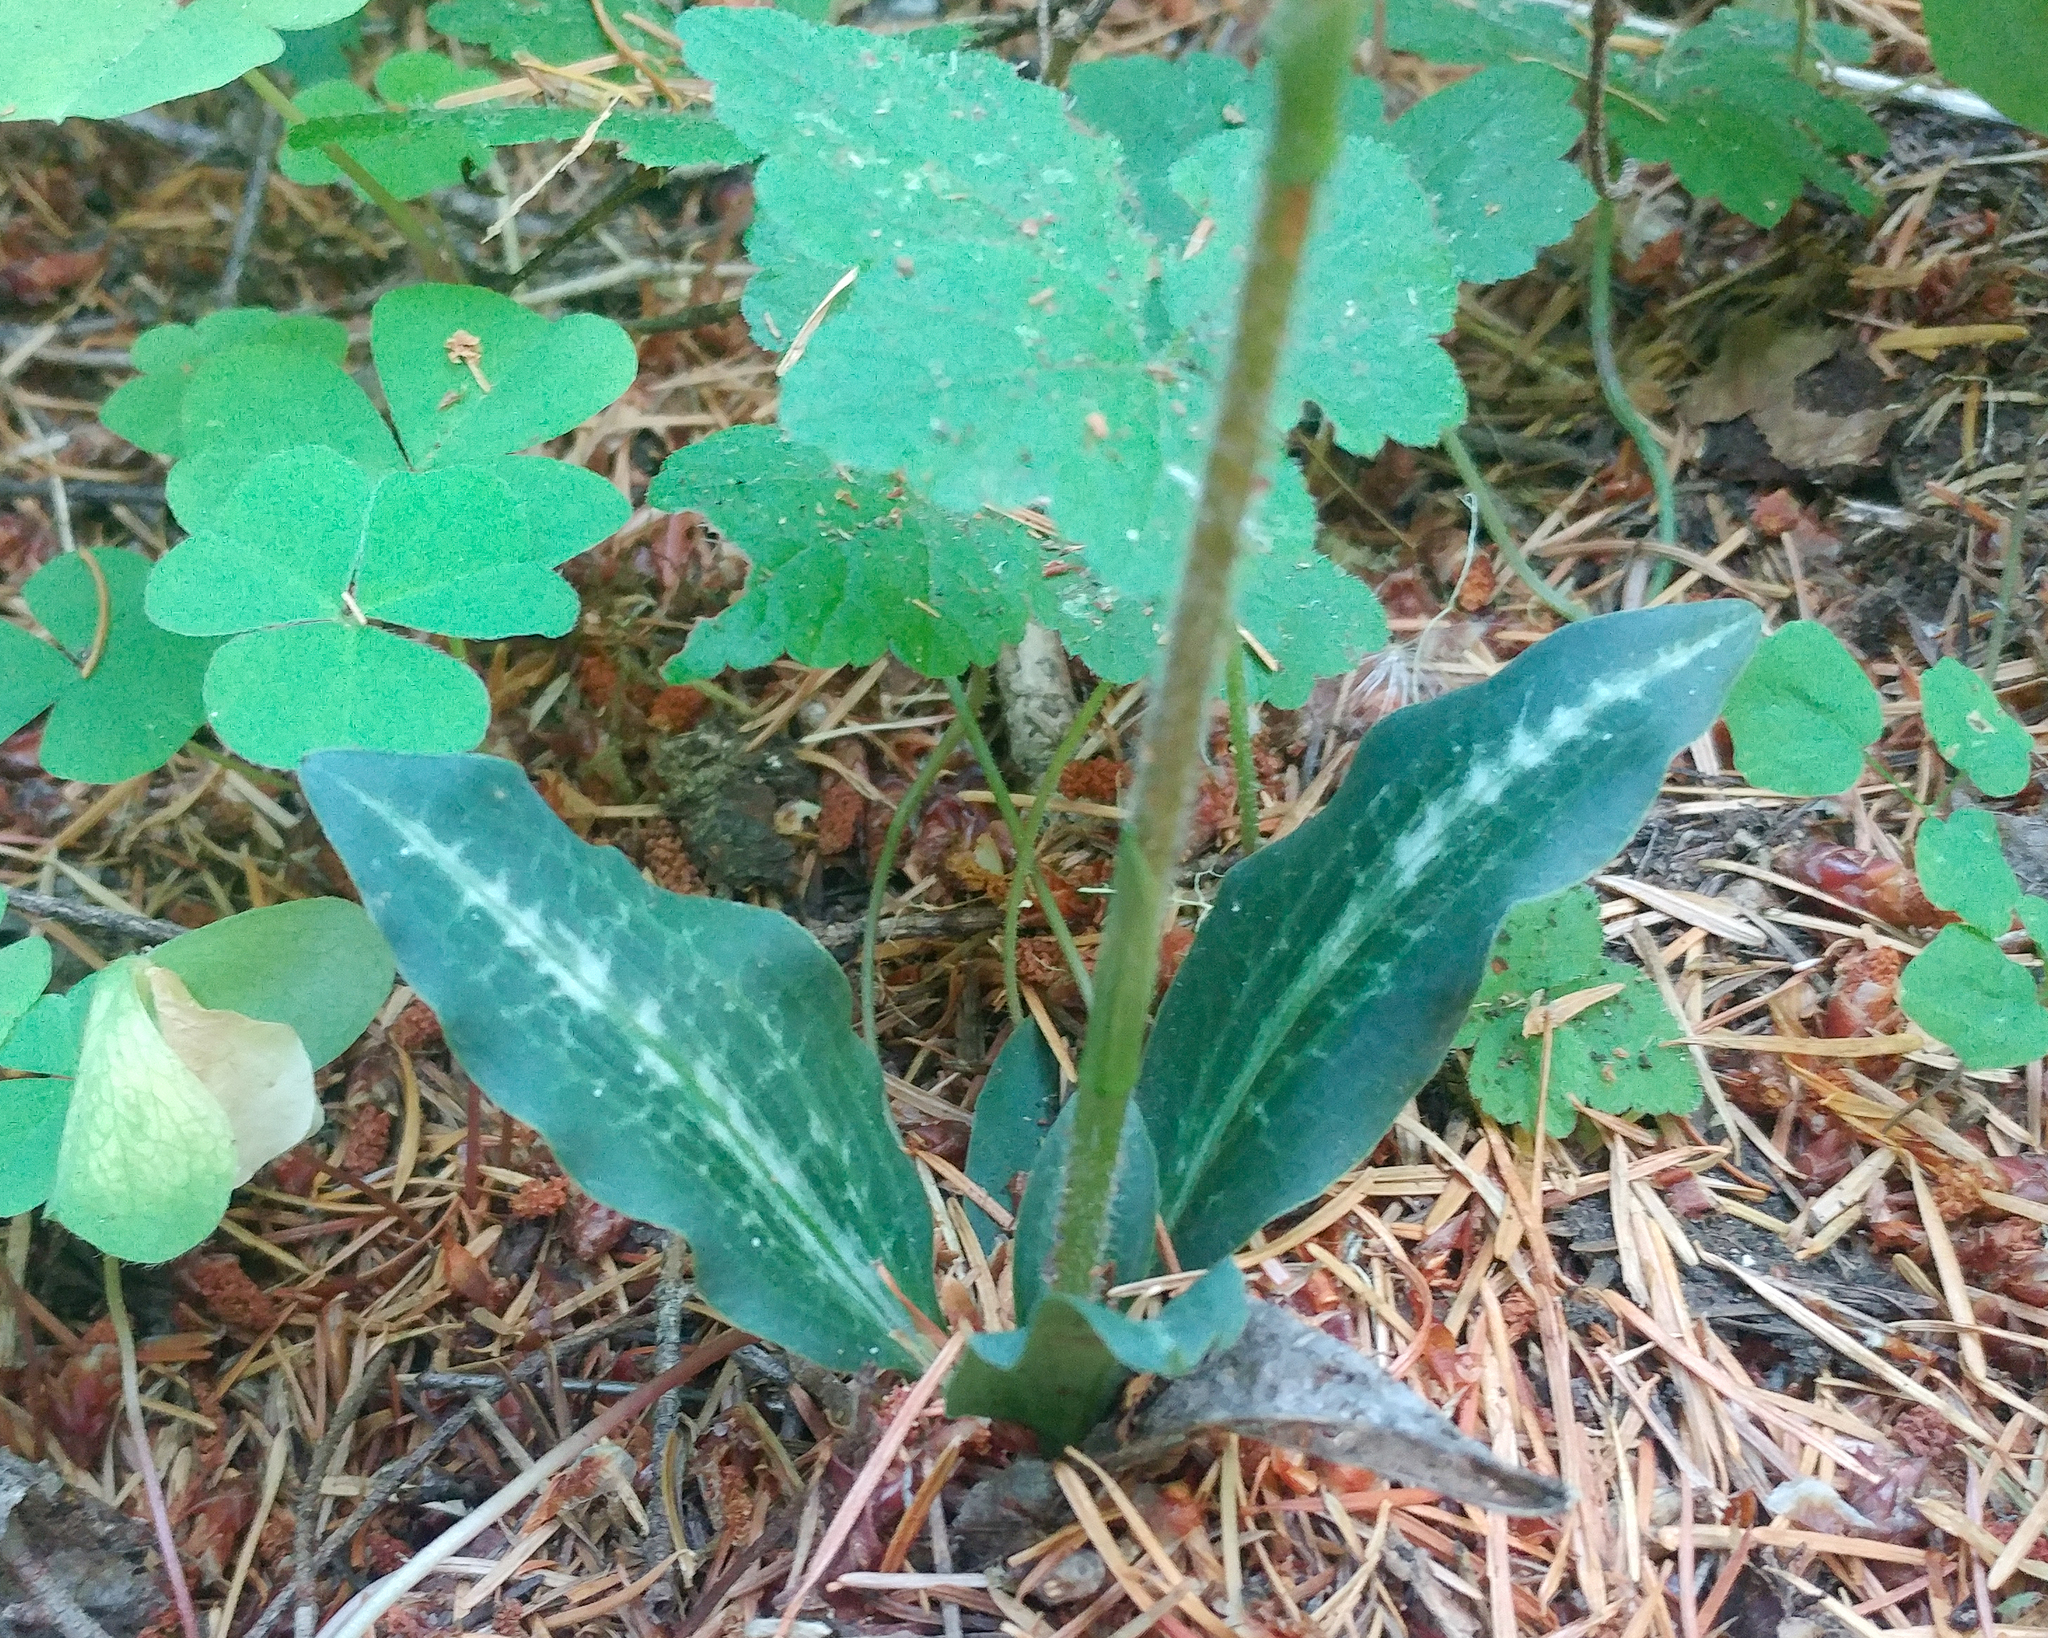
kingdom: Plantae
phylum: Tracheophyta
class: Liliopsida
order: Asparagales
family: Orchidaceae
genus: Goodyera
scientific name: Goodyera oblongifolia
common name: Giant rattlesnake-plantain
